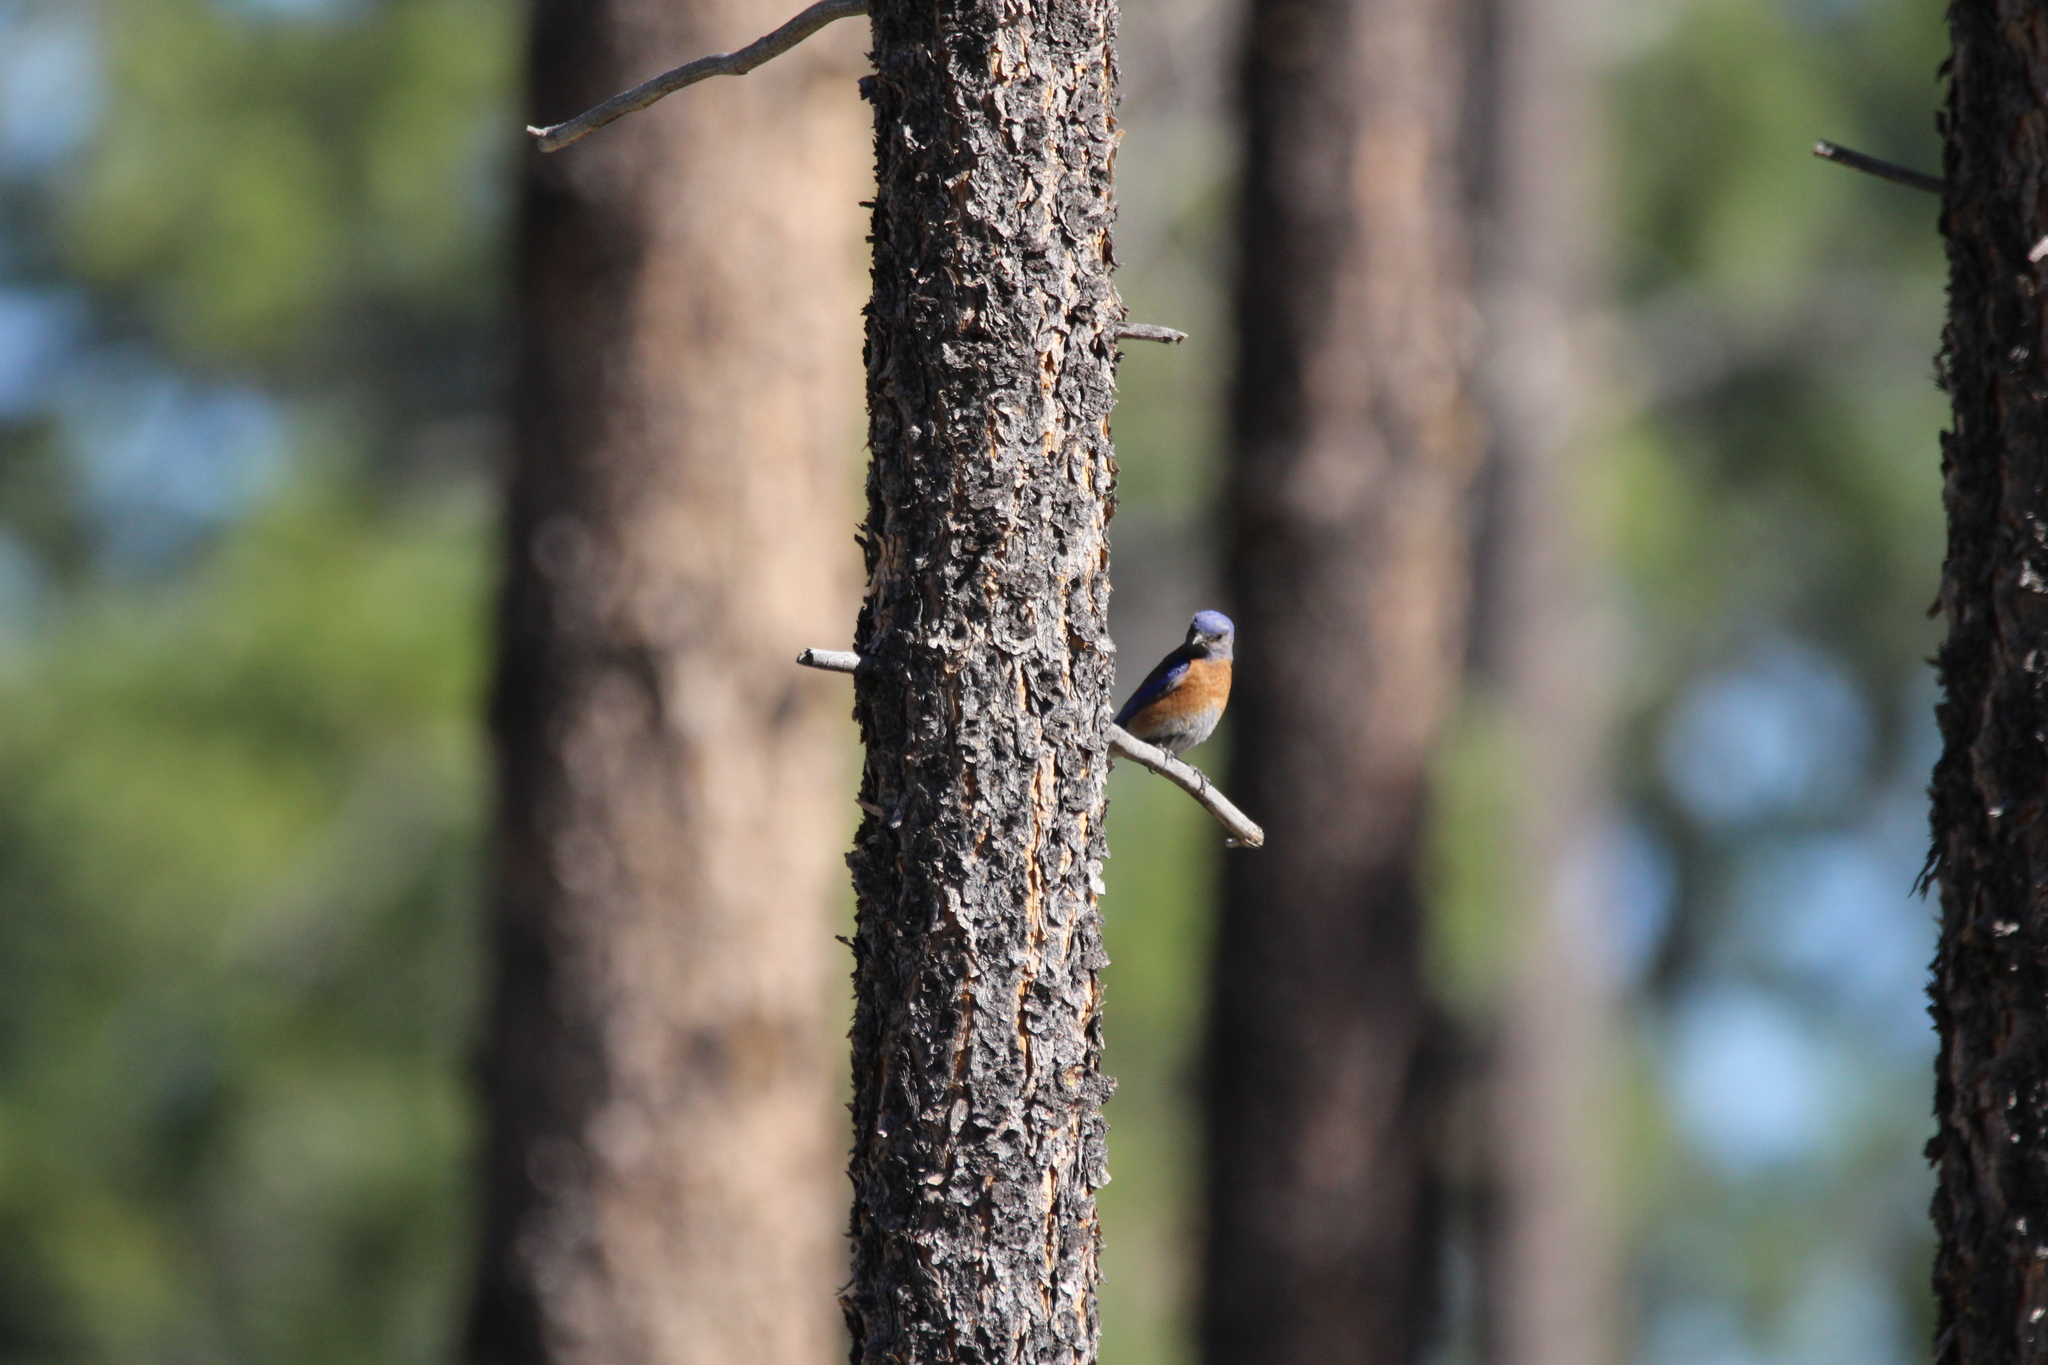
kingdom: Animalia
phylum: Chordata
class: Aves
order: Passeriformes
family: Turdidae
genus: Sialia
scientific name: Sialia mexicana
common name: Western bluebird
